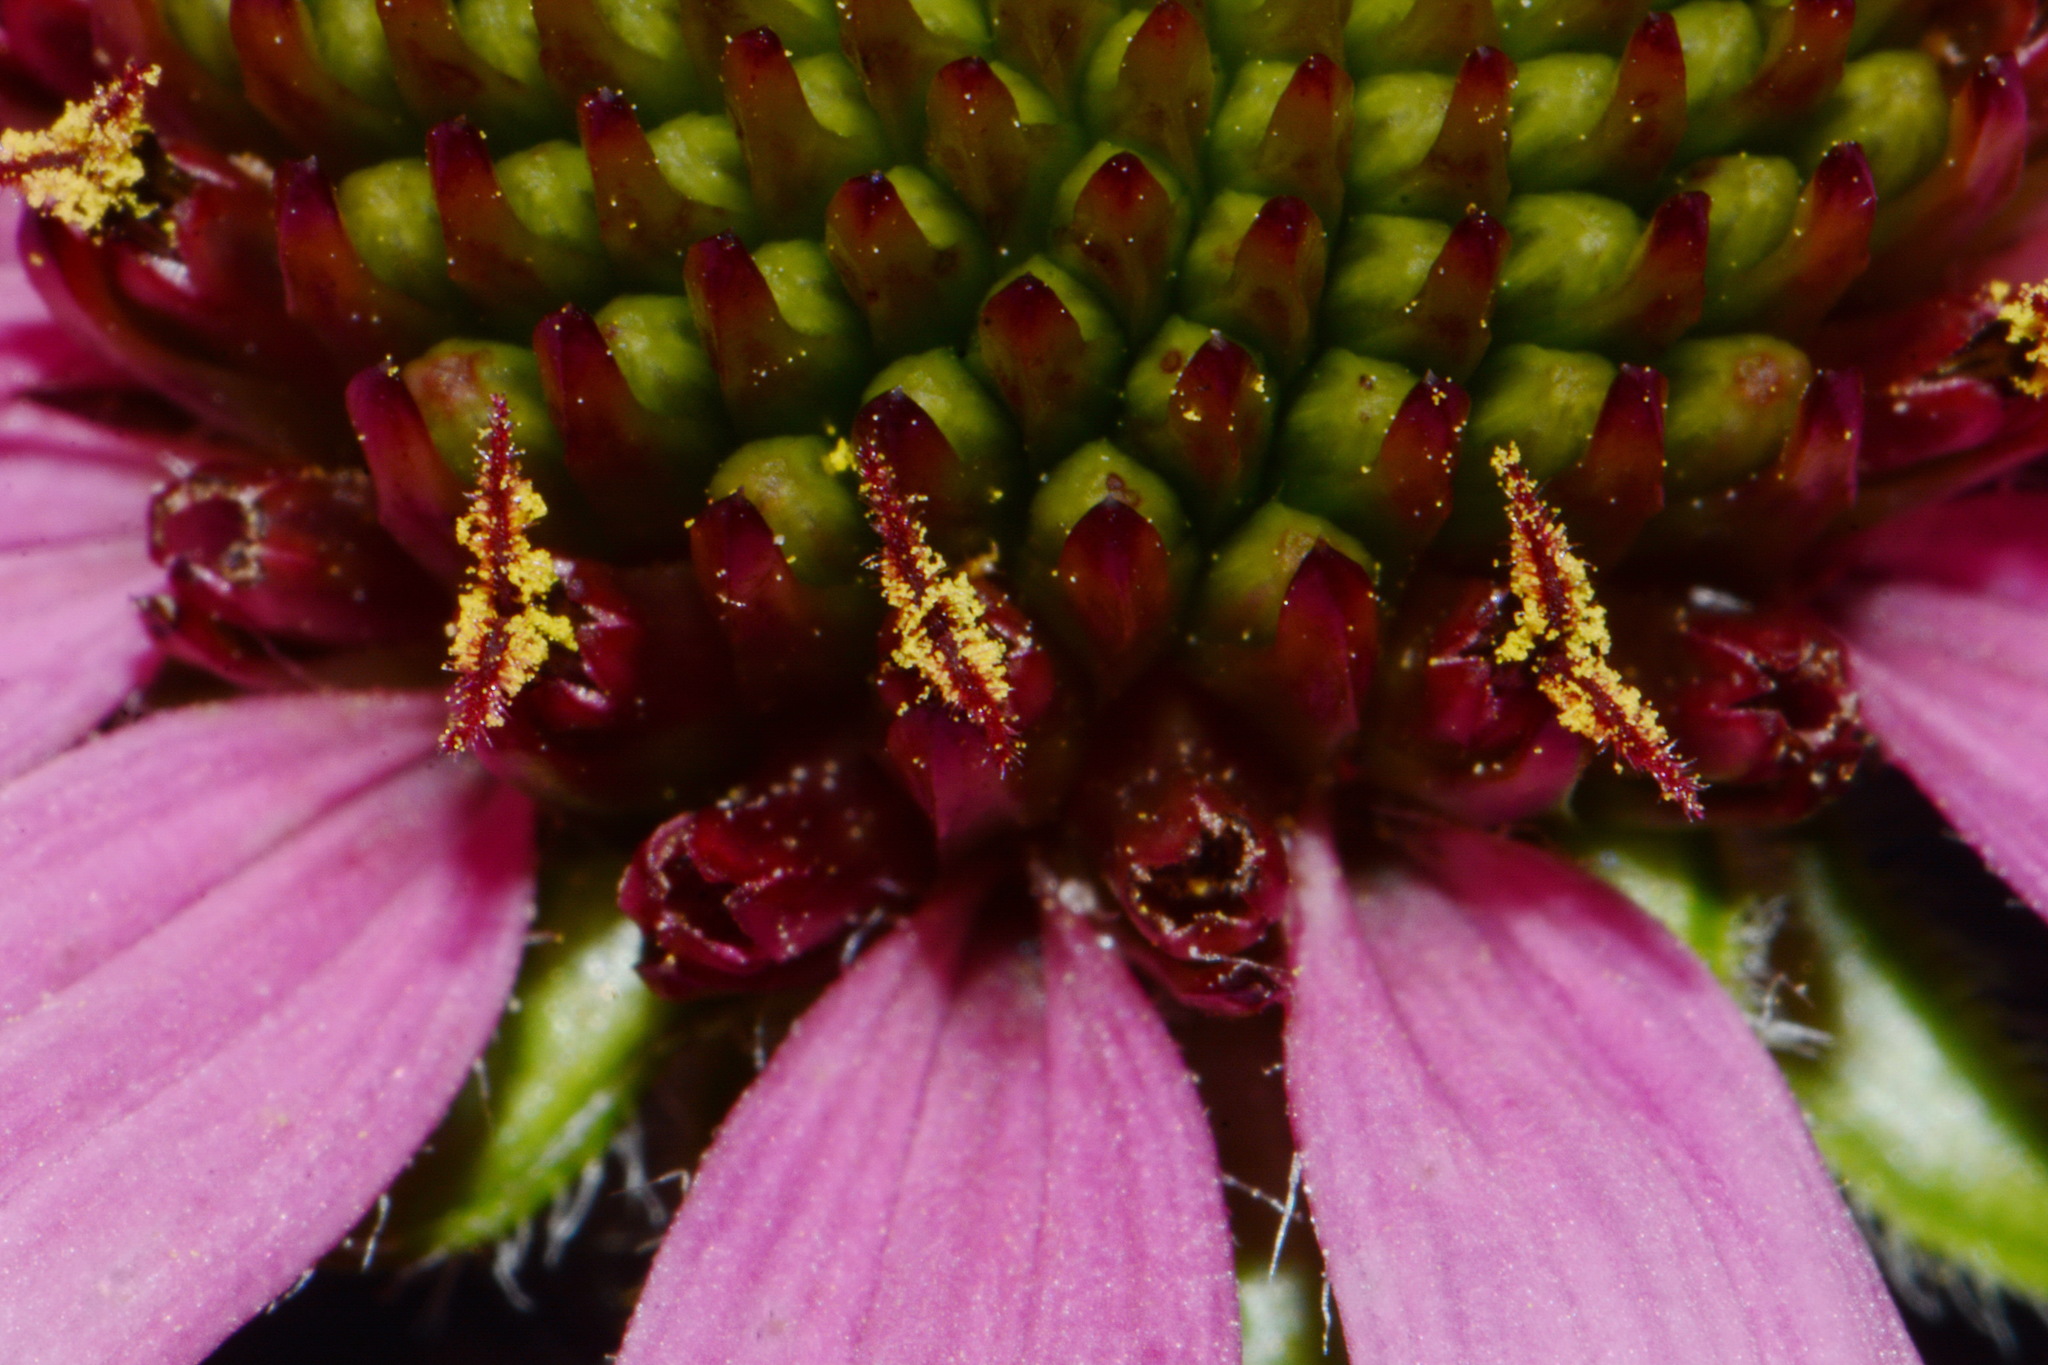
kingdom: Plantae
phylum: Tracheophyta
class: Magnoliopsida
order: Asterales
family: Asteraceae
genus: Echinacea
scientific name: Echinacea tennesseensis
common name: Tennessee purple-coneflower
